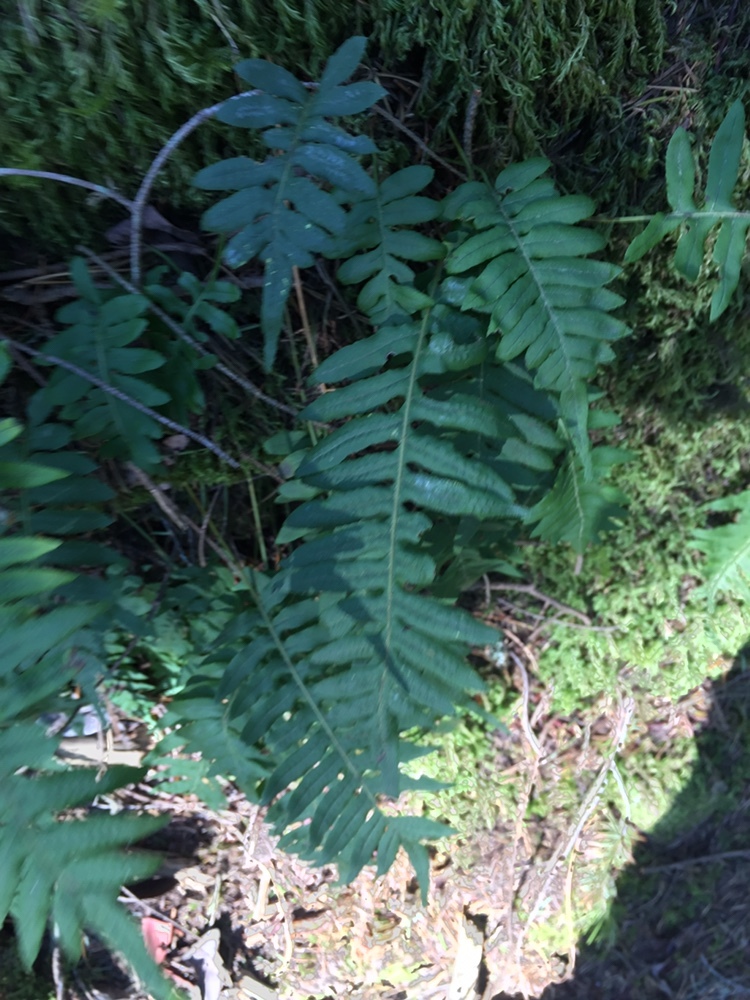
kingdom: Plantae
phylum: Tracheophyta
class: Polypodiopsida
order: Polypodiales
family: Polypodiaceae
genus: Polypodium
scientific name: Polypodium glycyrrhiza
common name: Licorice fern
